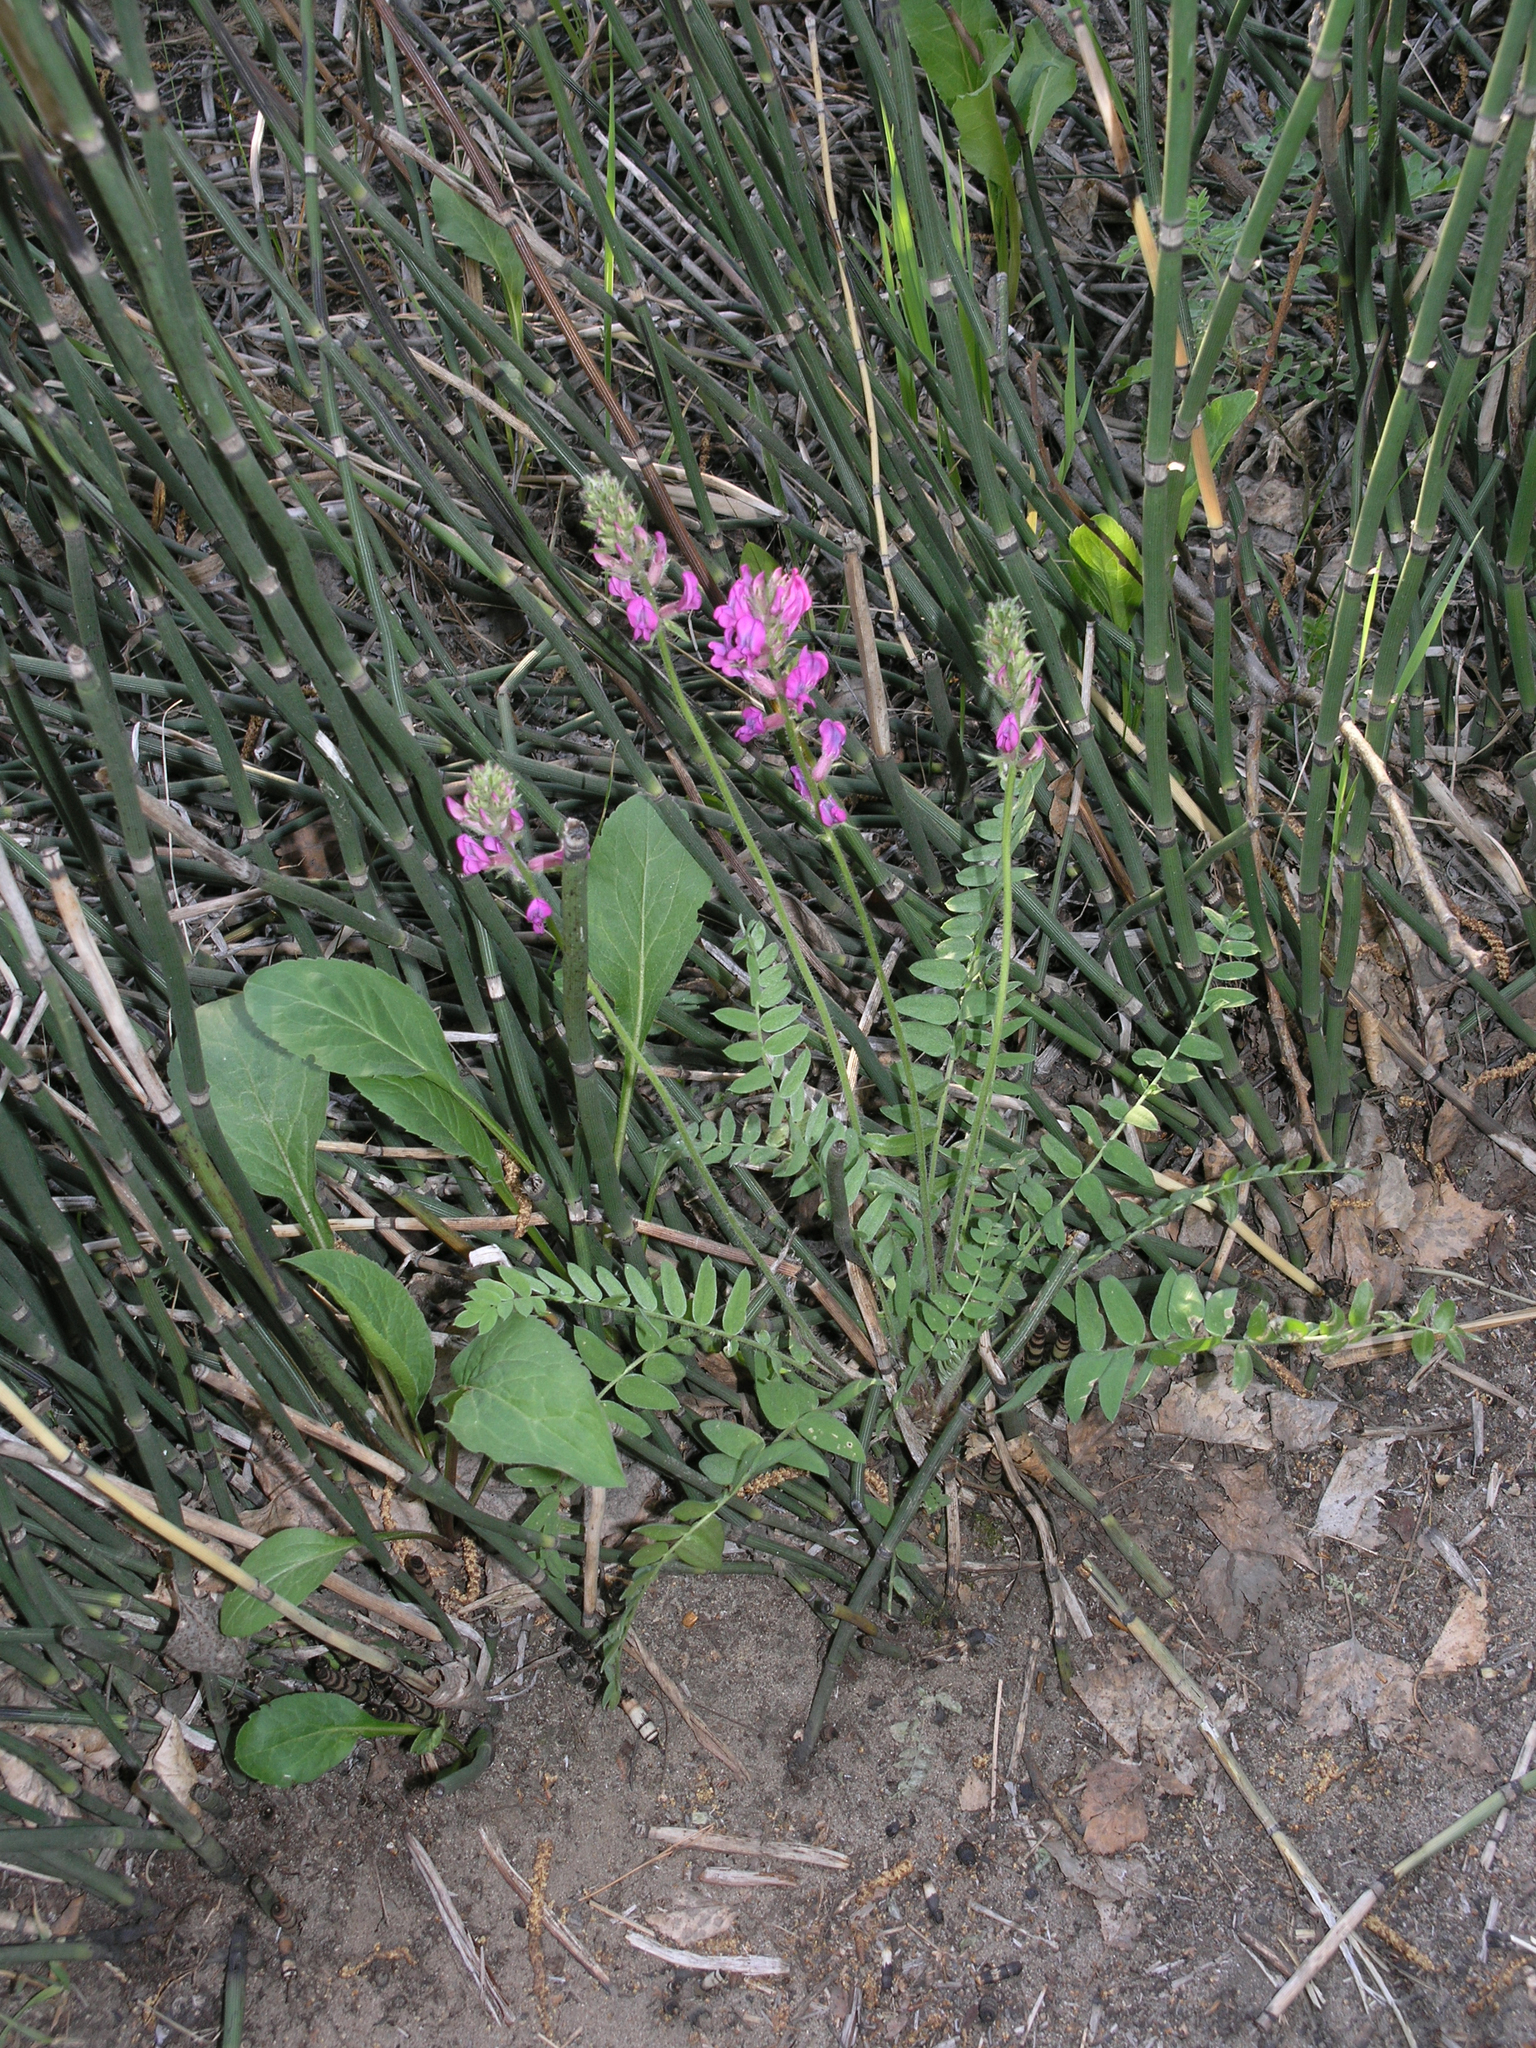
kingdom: Plantae
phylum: Tracheophyta
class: Magnoliopsida
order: Fabales
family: Fabaceae
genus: Oxytropis
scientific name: Oxytropis campanulata
